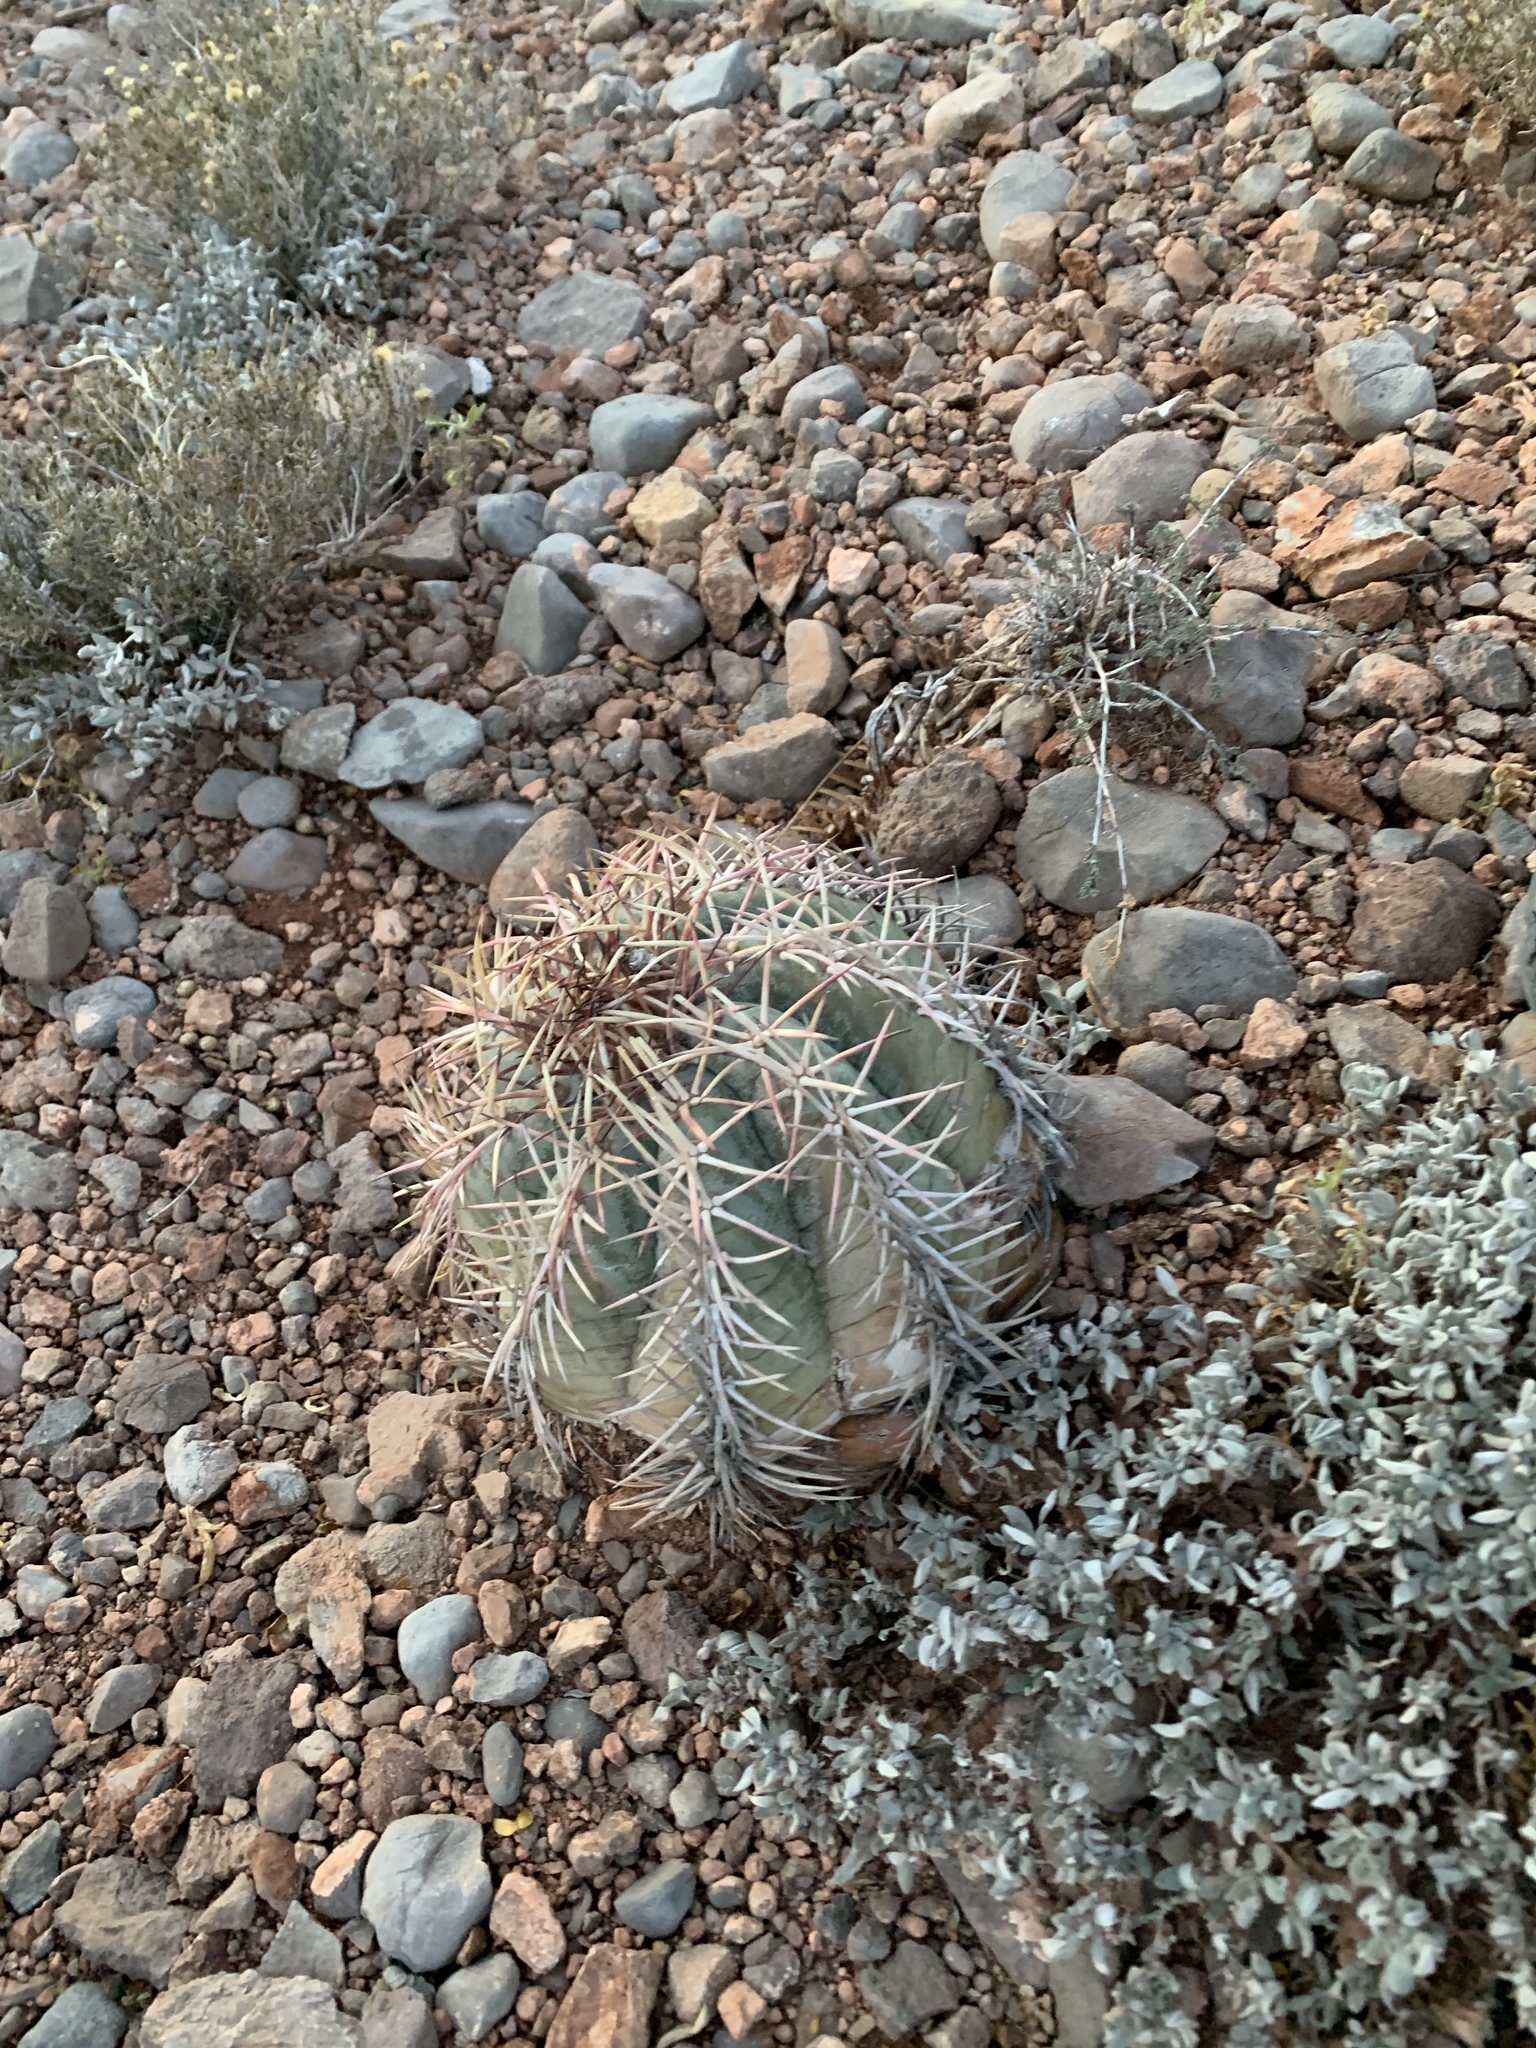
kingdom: Plantae
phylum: Tracheophyta
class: Magnoliopsida
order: Caryophyllales
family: Cactaceae
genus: Echinocactus
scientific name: Echinocactus horizonthalonius
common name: Devilshead
